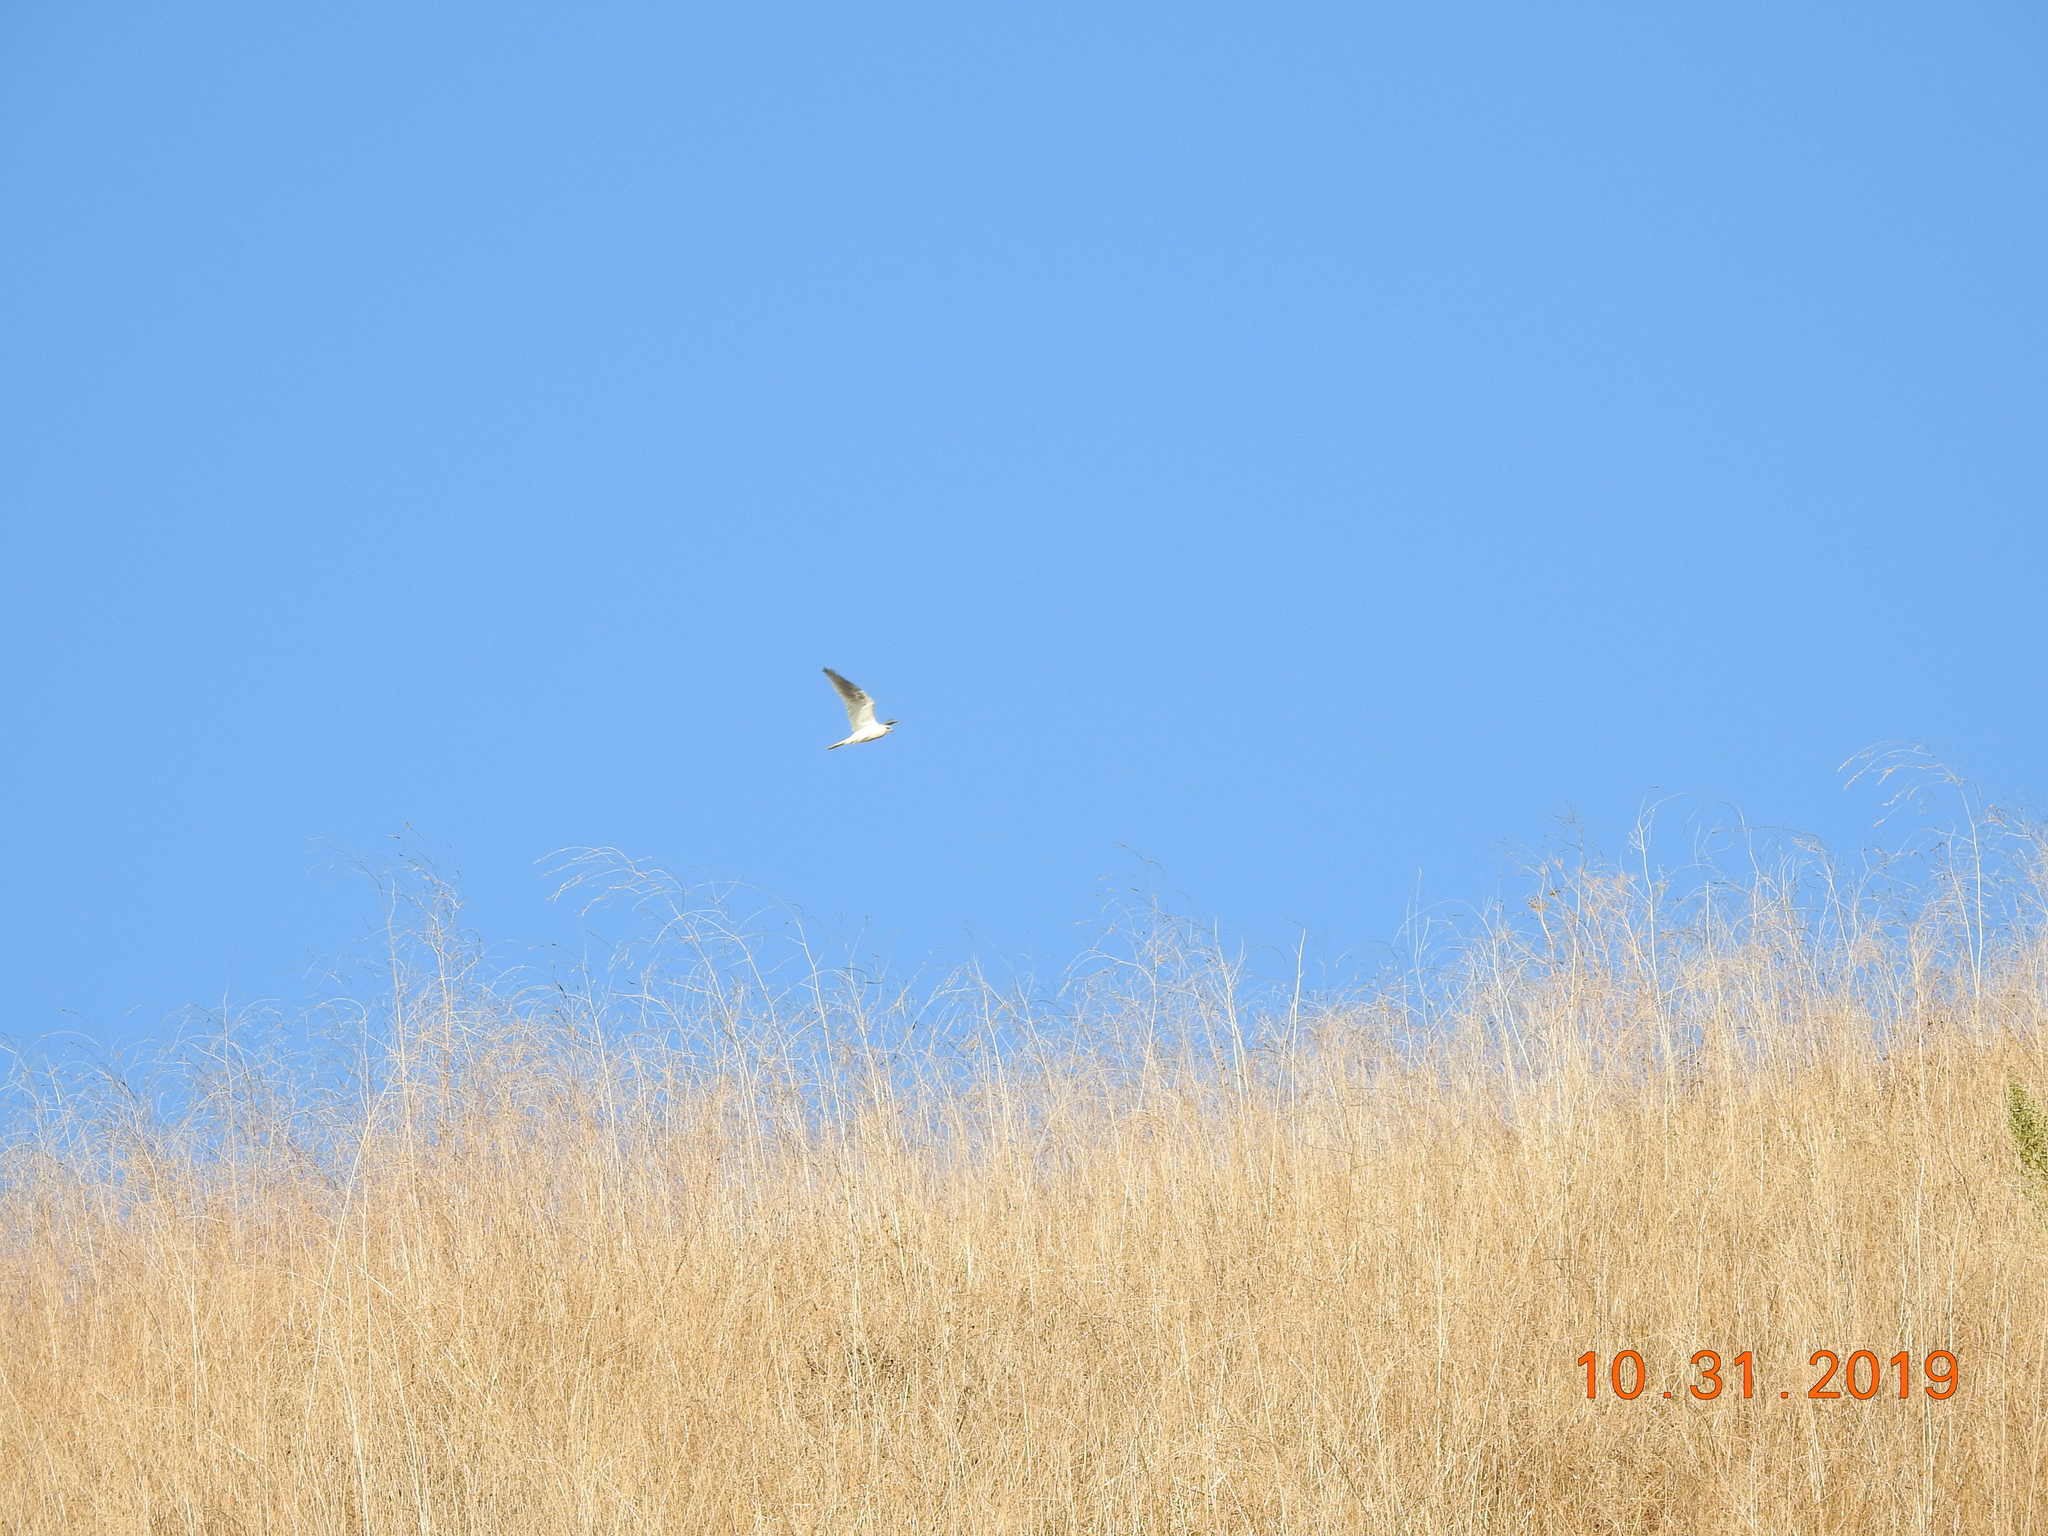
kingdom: Animalia
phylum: Chordata
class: Aves
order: Accipitriformes
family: Accipitridae
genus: Elanus
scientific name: Elanus leucurus
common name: White-tailed kite
